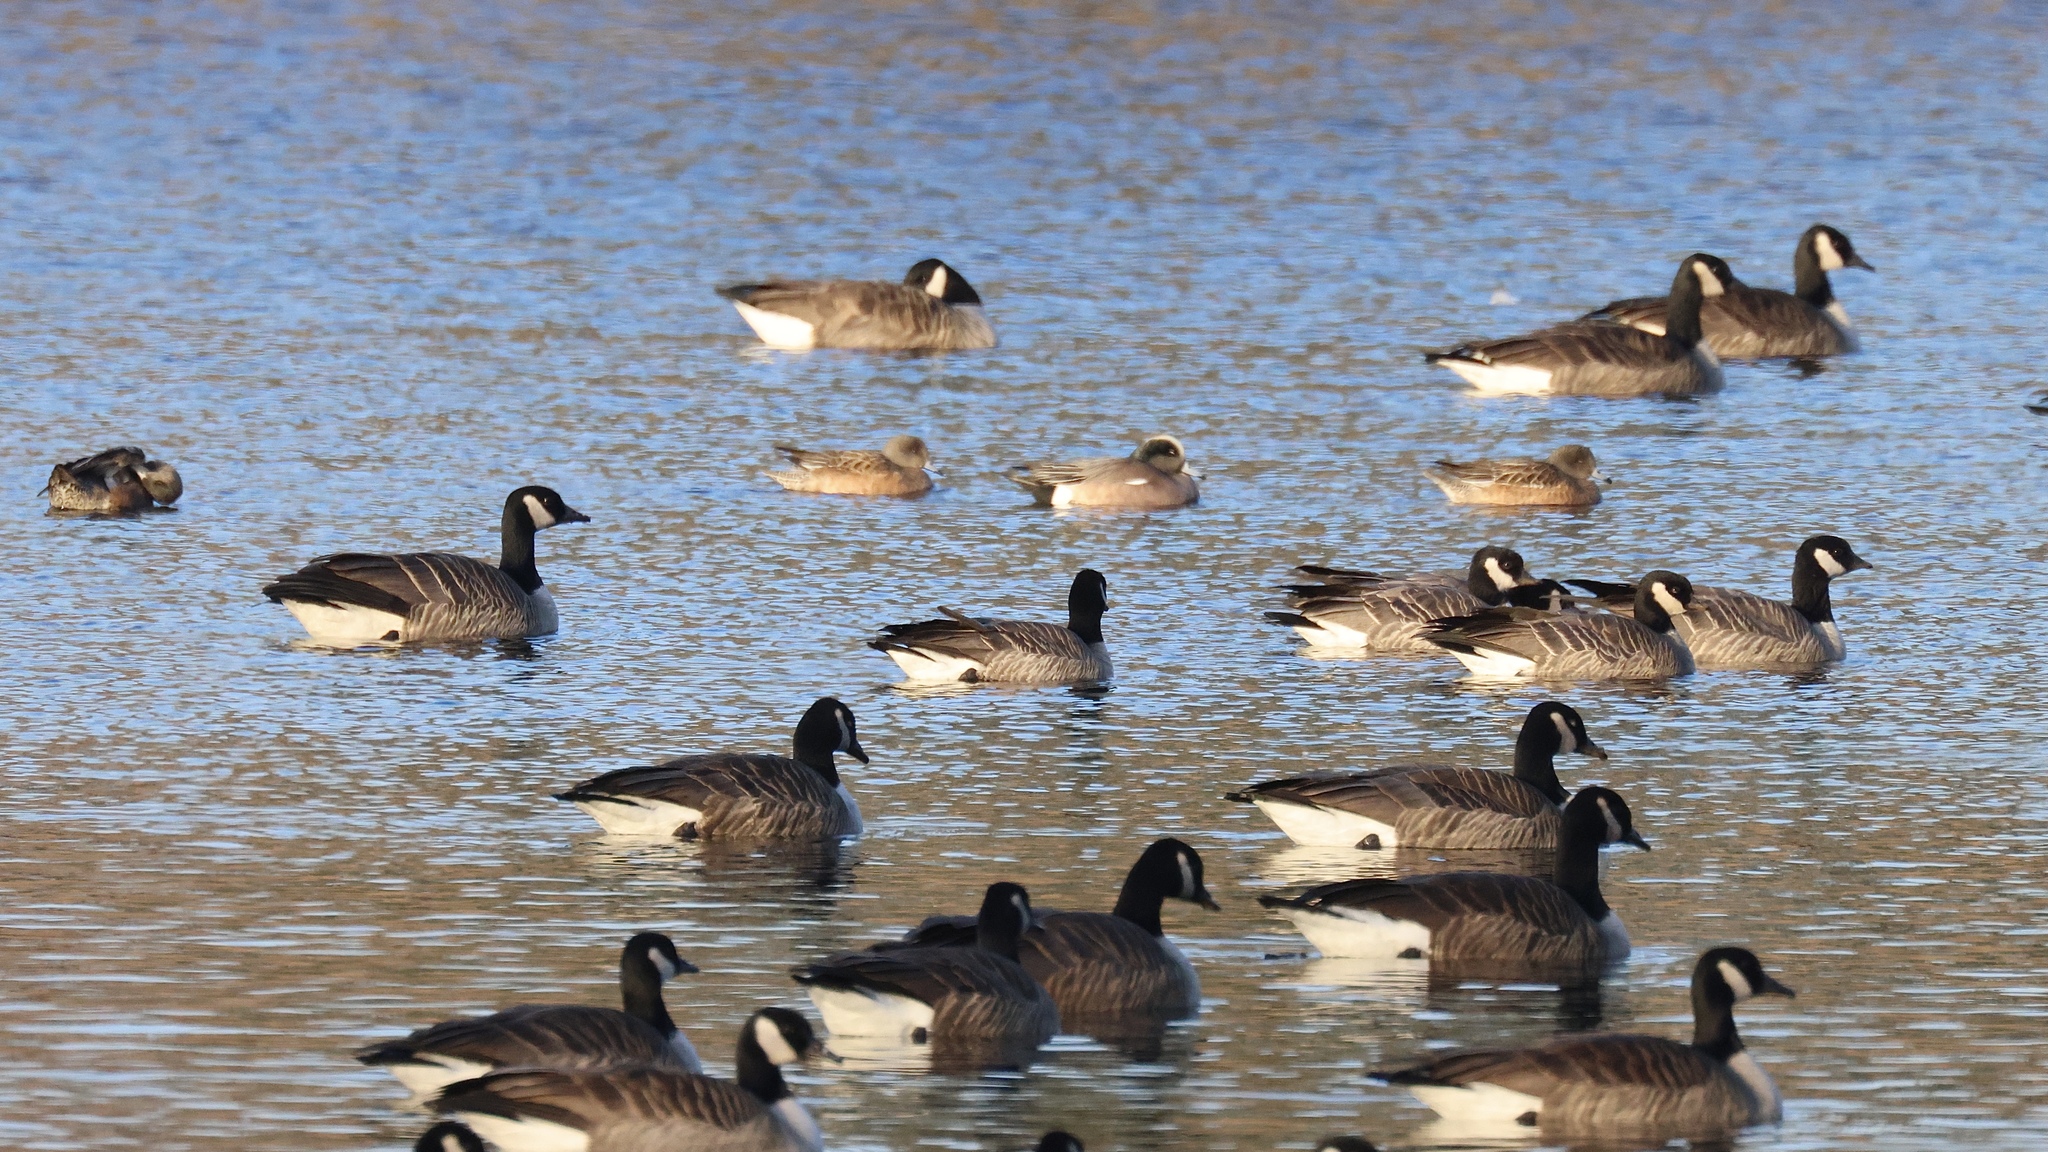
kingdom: Animalia
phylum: Chordata
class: Aves
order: Anseriformes
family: Anatidae
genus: Mareca
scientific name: Mareca americana
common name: American wigeon
